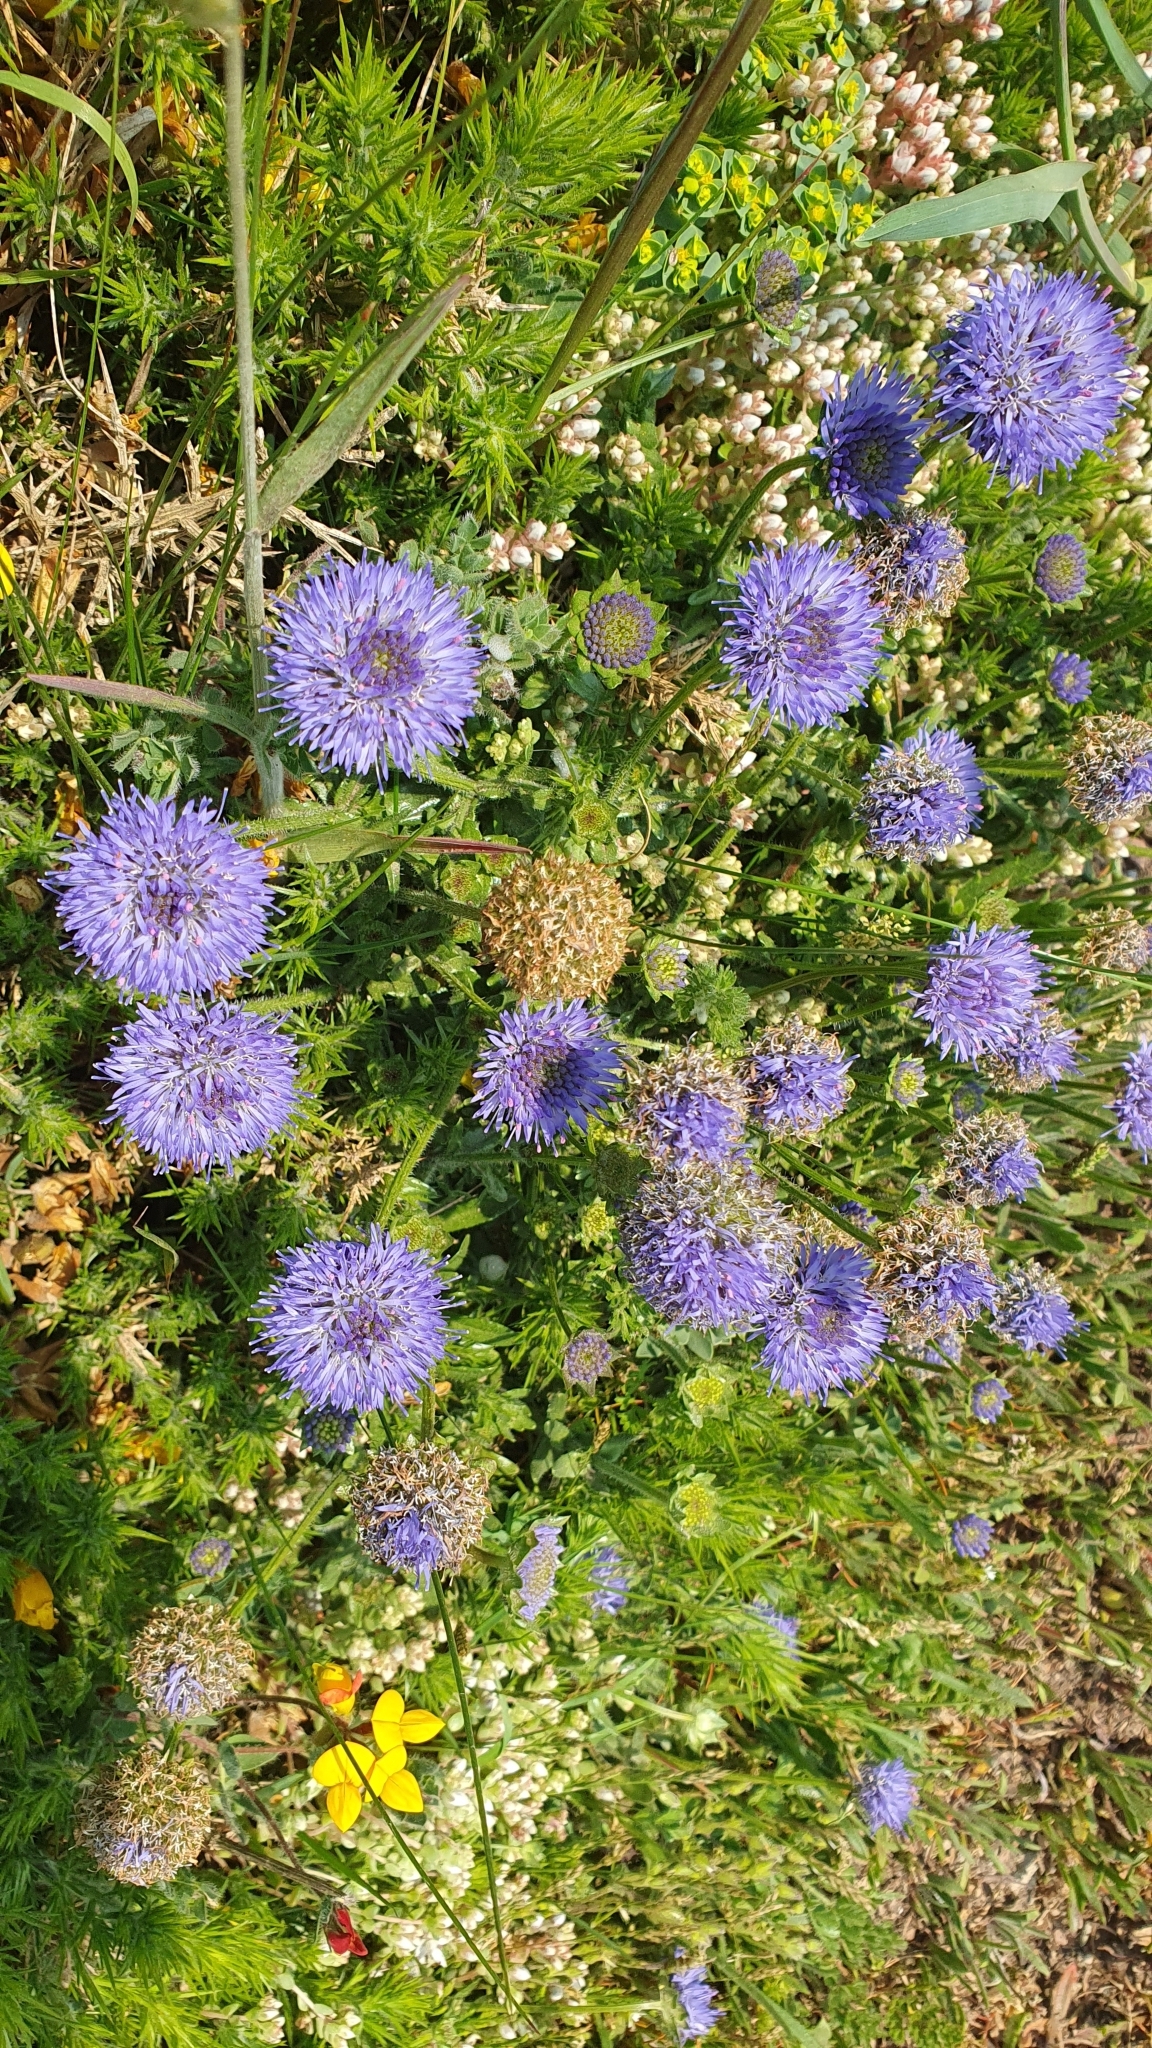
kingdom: Plantae
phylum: Tracheophyta
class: Magnoliopsida
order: Asterales
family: Campanulaceae
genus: Jasione
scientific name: Jasione montana
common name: Sheep's-bit
